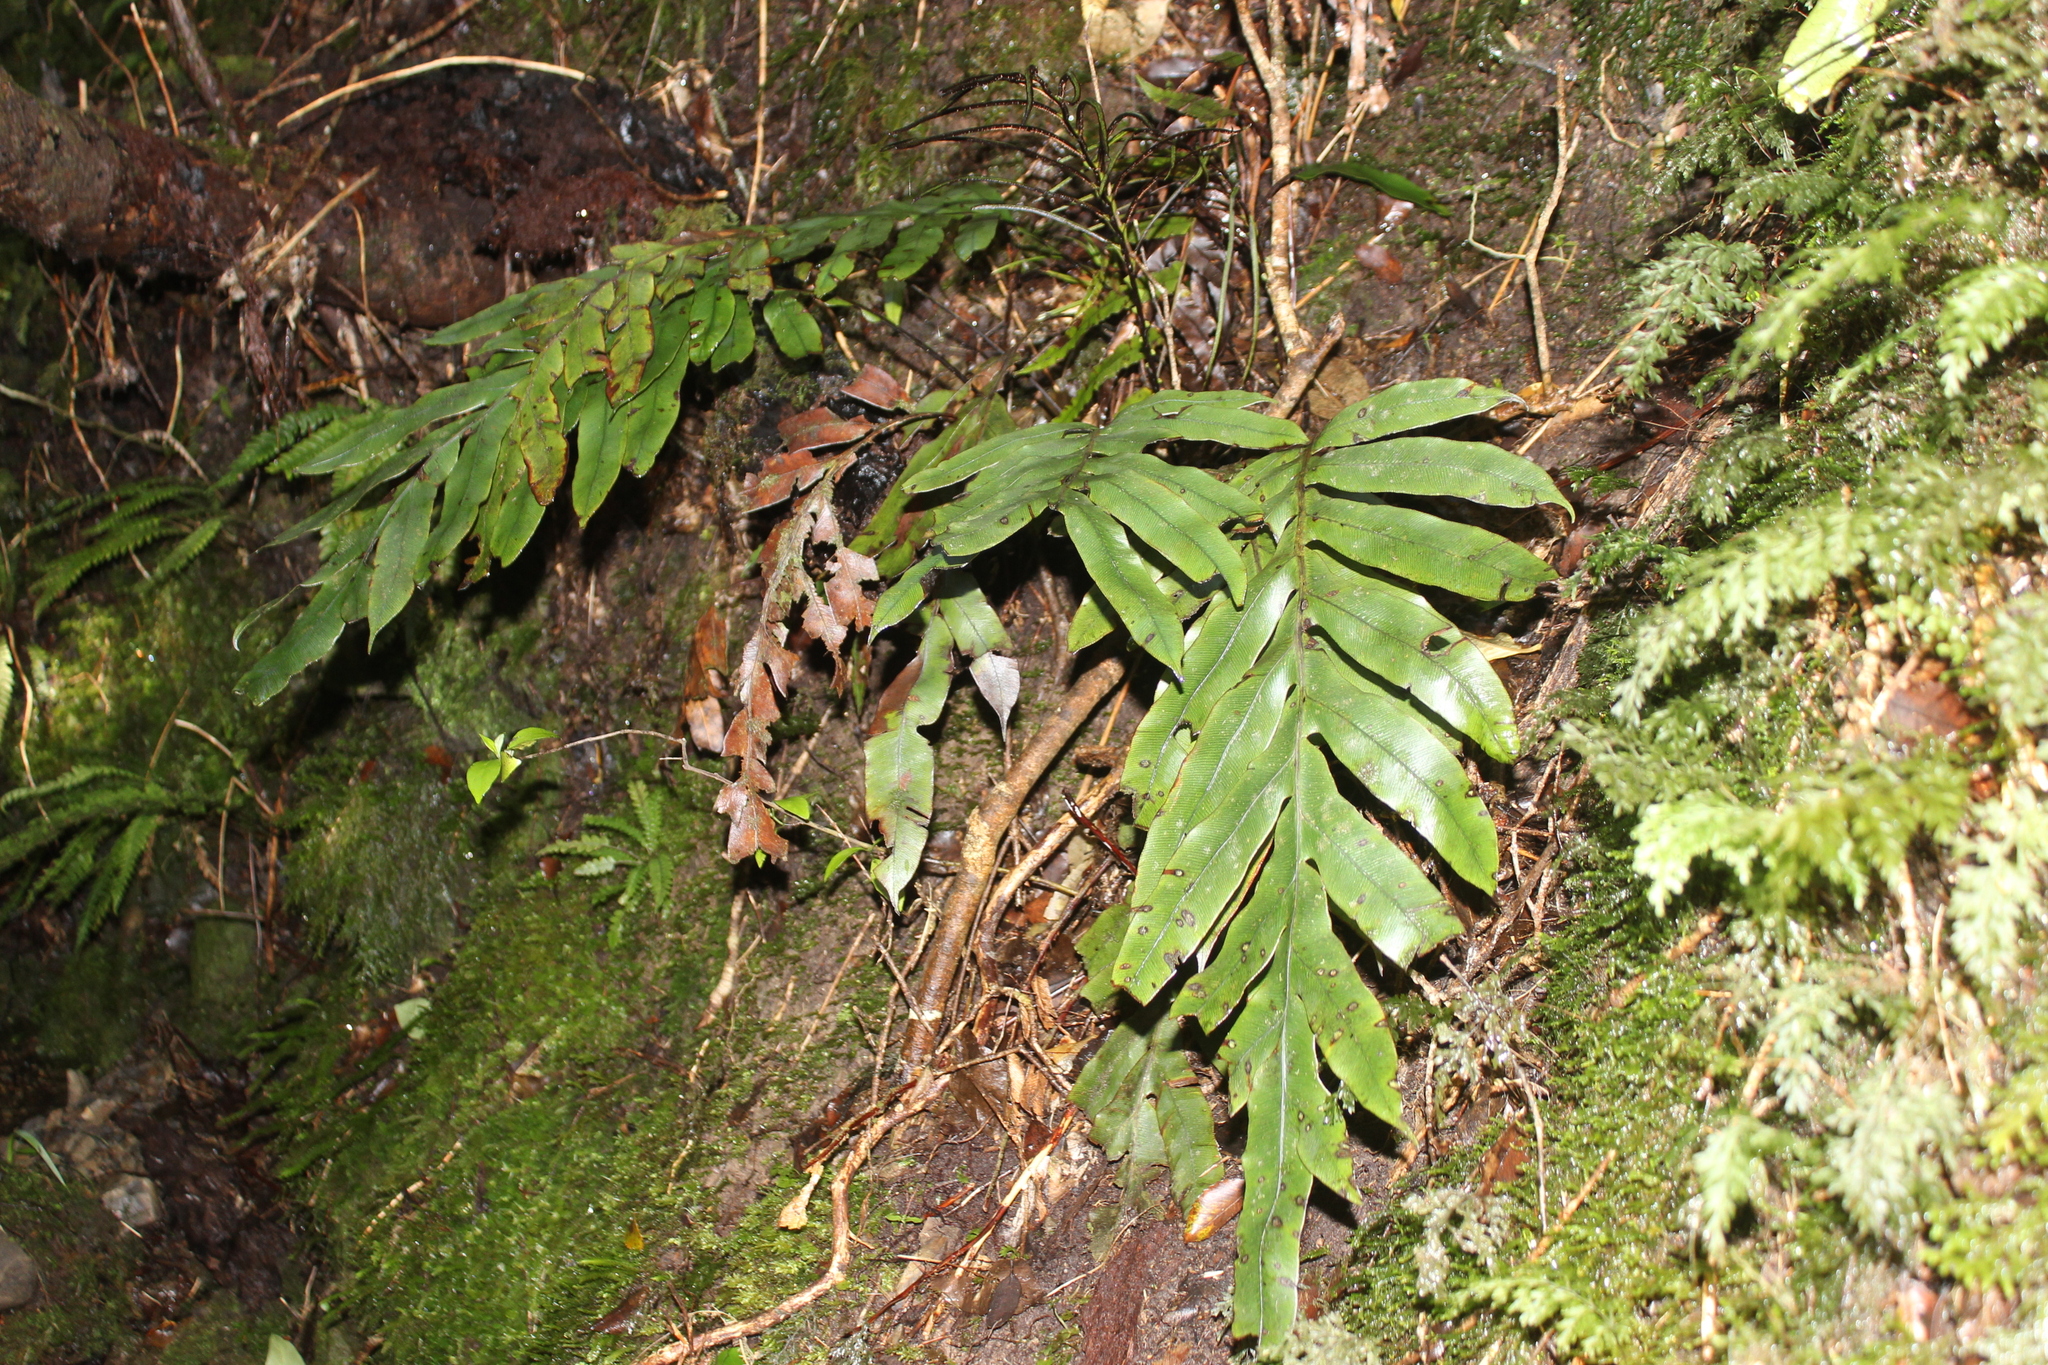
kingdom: Plantae
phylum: Tracheophyta
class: Polypodiopsida
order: Polypodiales
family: Blechnaceae
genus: Austroblechnum
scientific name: Austroblechnum colensoi
